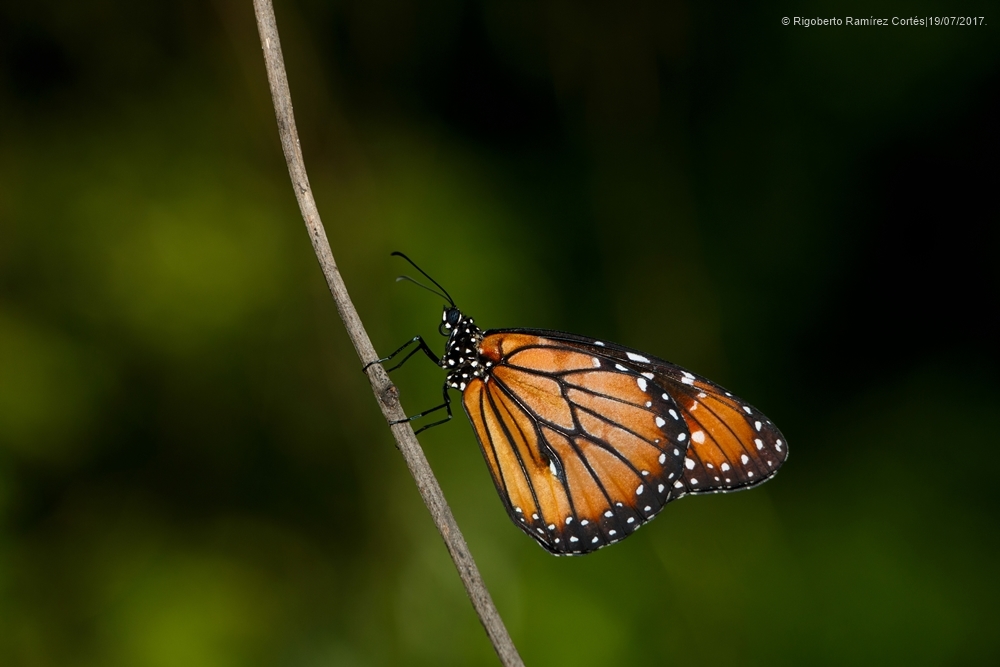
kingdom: Animalia
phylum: Arthropoda
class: Insecta
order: Lepidoptera
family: Nymphalidae
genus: Danaus
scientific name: Danaus eresimus
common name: Soldier
